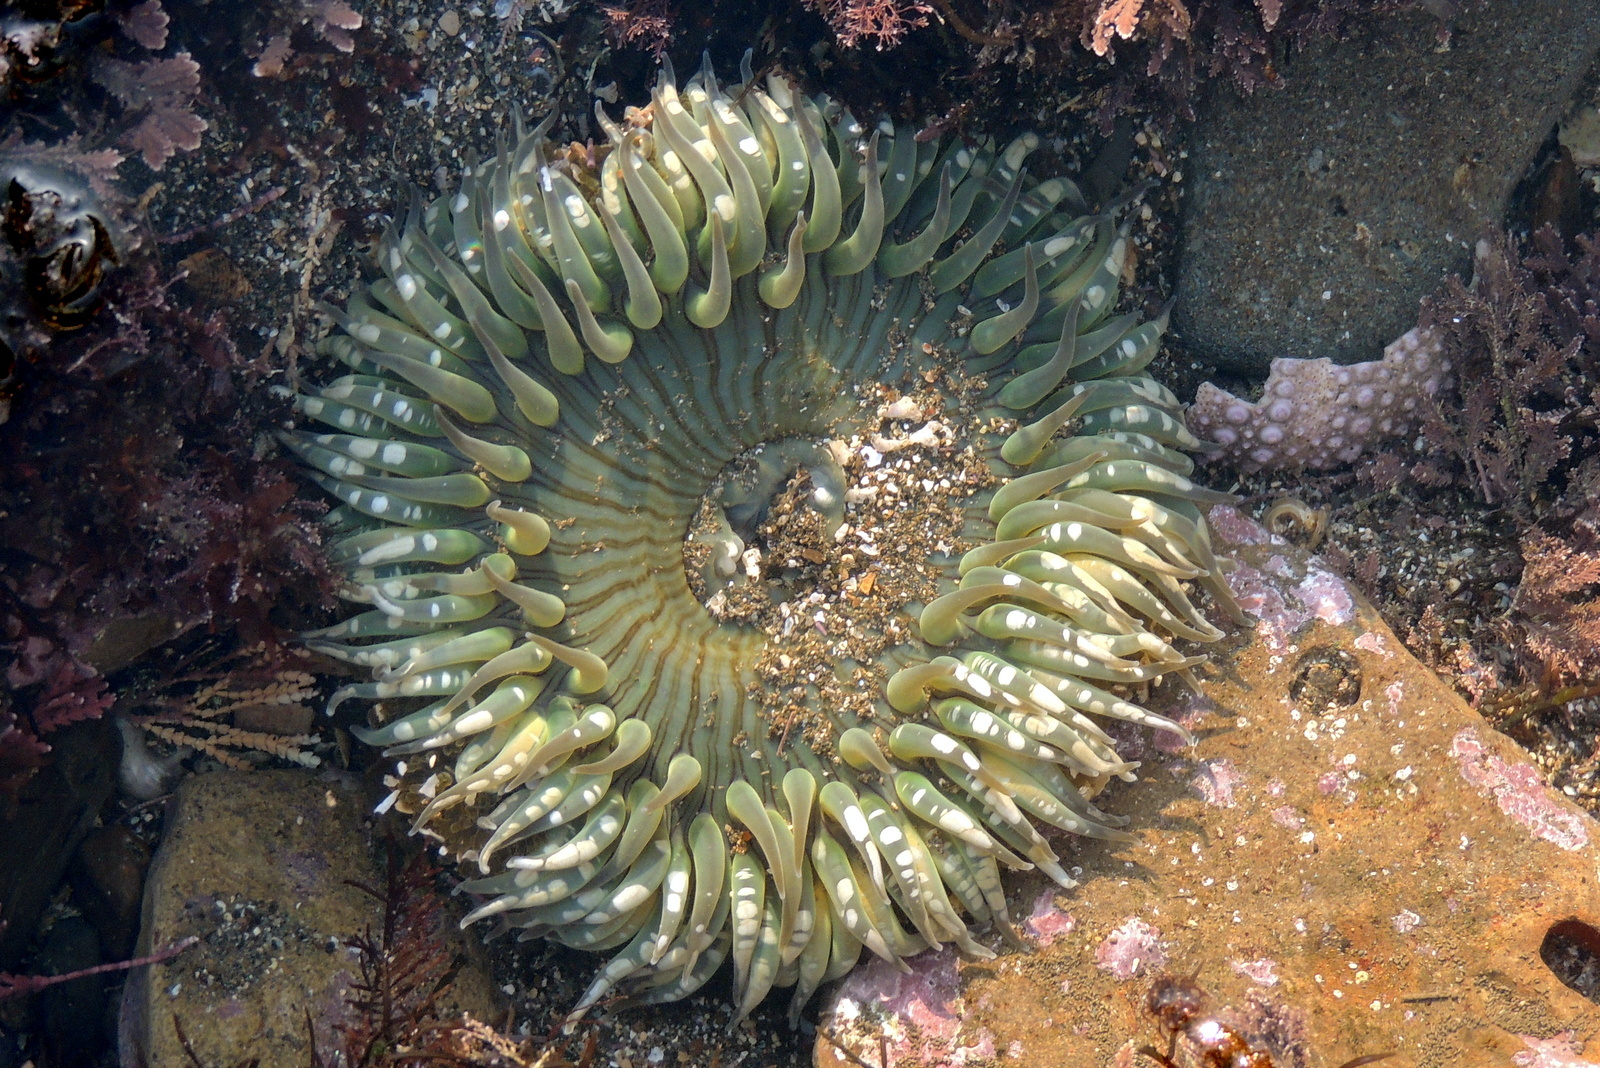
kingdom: Animalia
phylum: Cnidaria
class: Anthozoa
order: Actiniaria
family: Actiniidae
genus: Anthopleura
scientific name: Anthopleura sola
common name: Sun anemone
